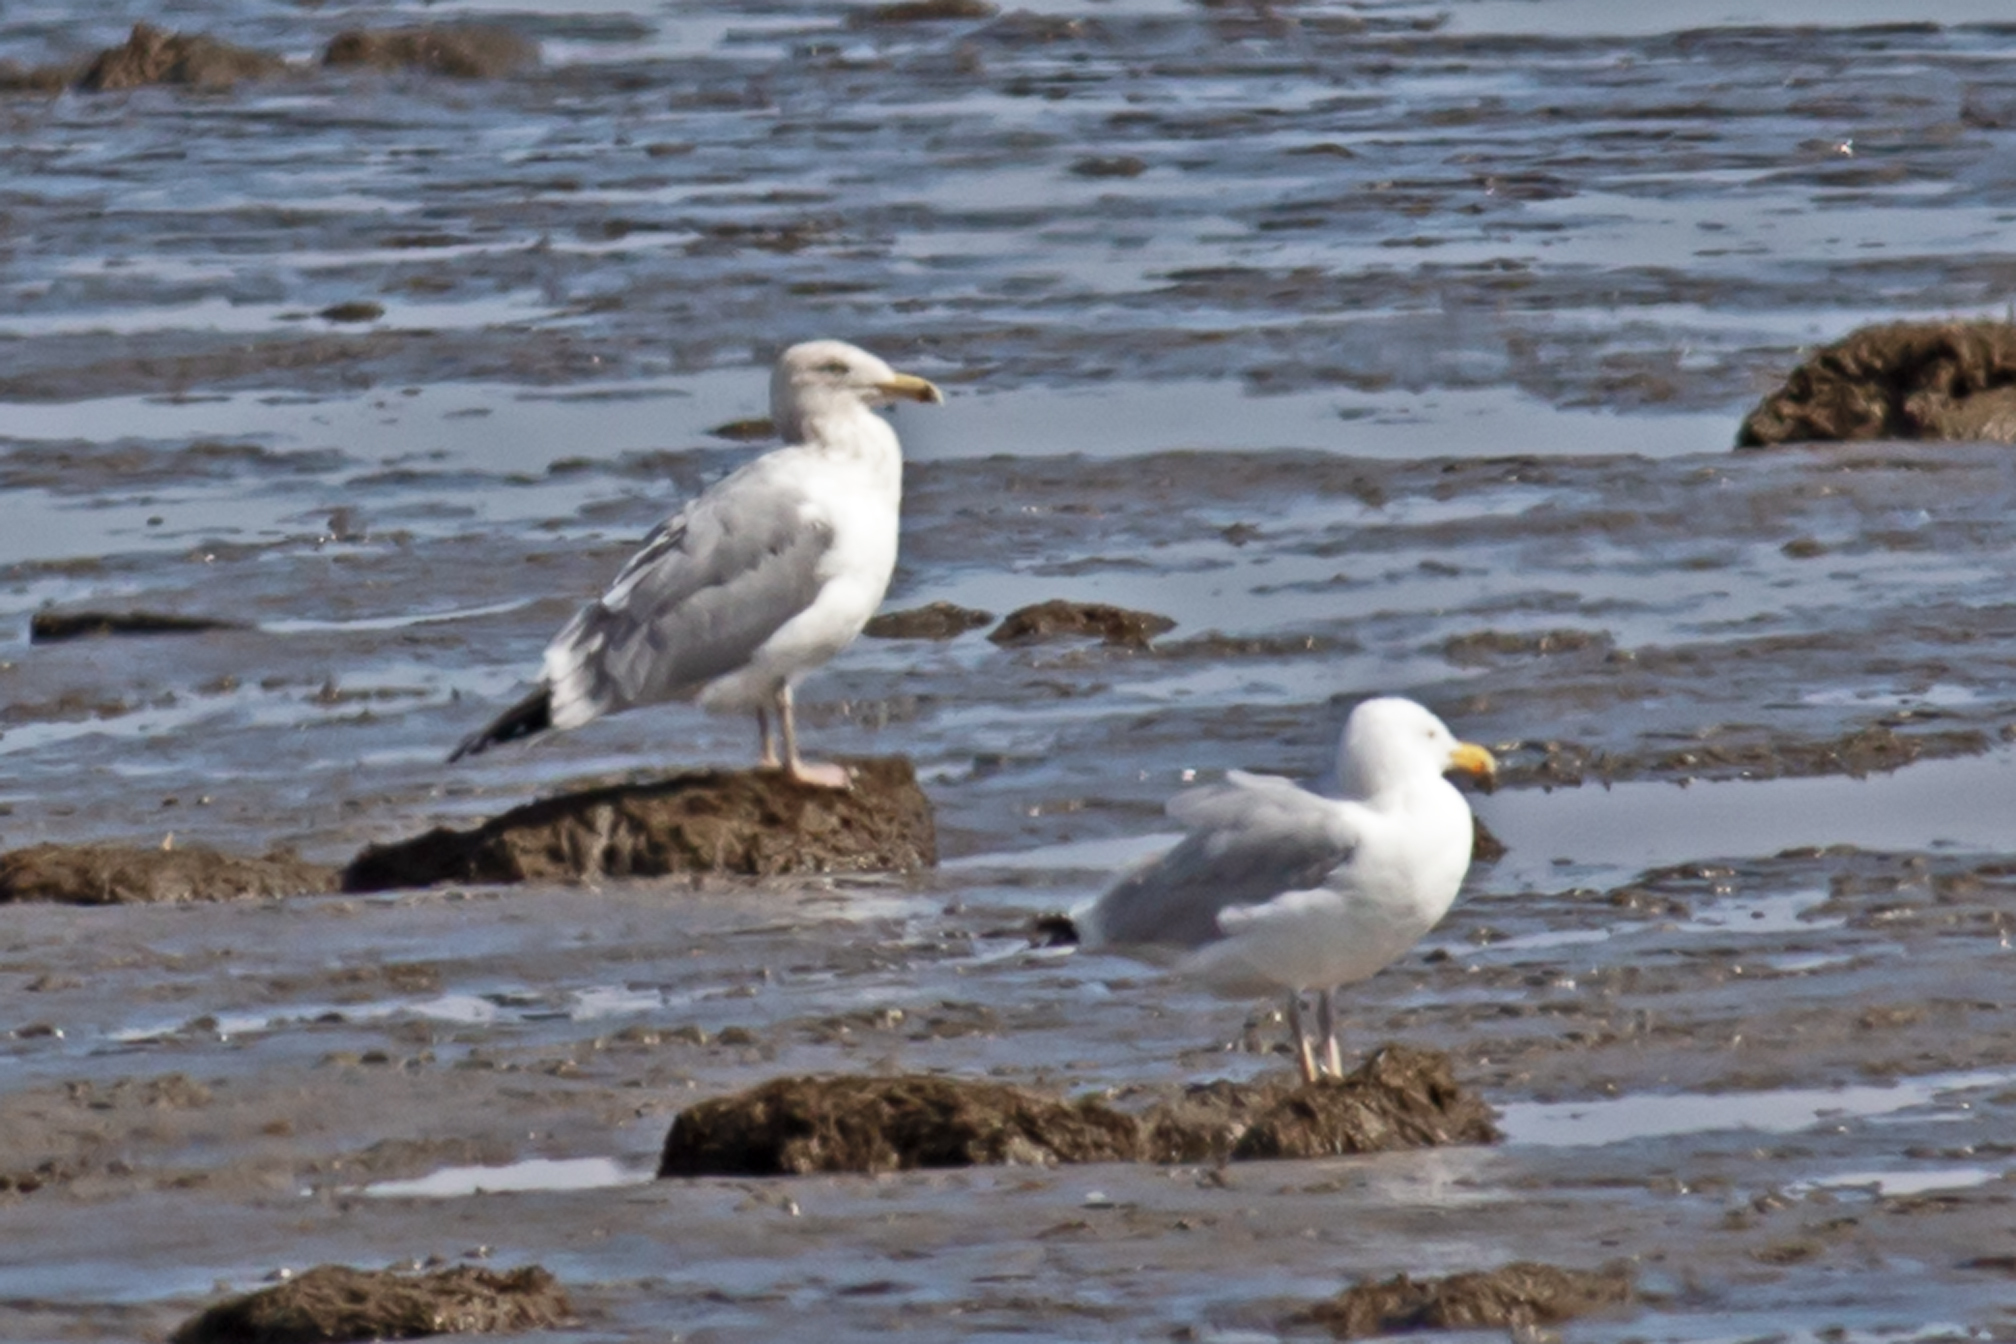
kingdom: Animalia
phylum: Chordata
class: Aves
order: Charadriiformes
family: Laridae
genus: Larus
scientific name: Larus argentatus
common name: Herring gull
